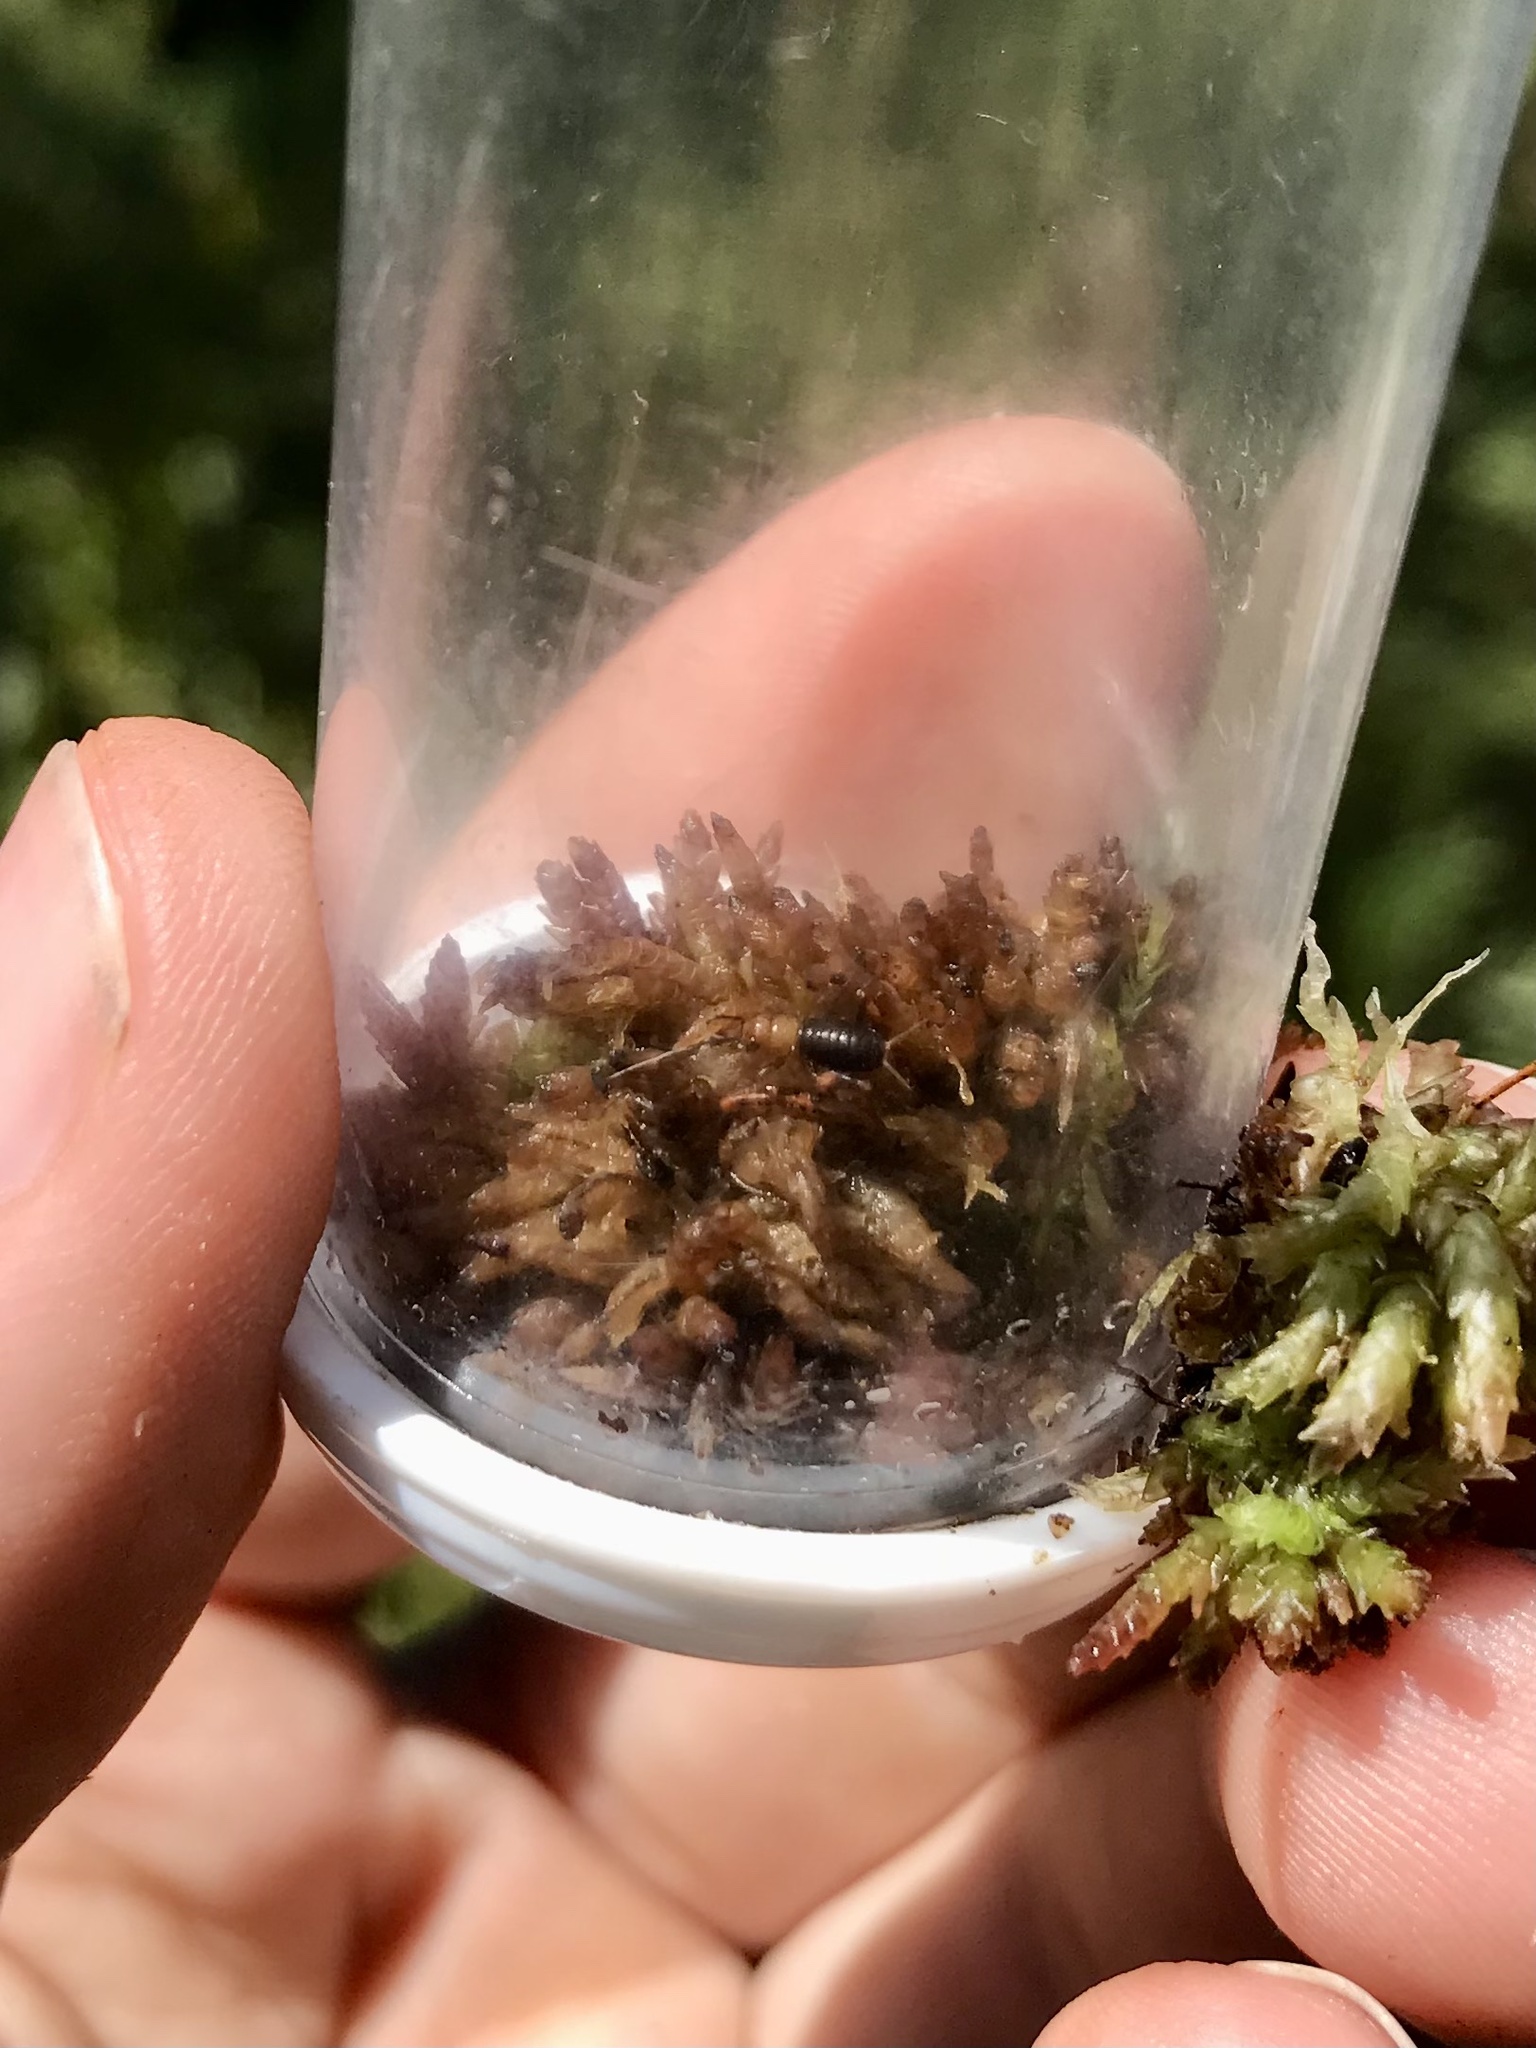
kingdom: Animalia
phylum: Arthropoda
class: Insecta
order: Orthoptera
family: Trigonidiidae
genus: Neonemobius
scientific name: Neonemobius palustris
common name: Marsh ground cricket
